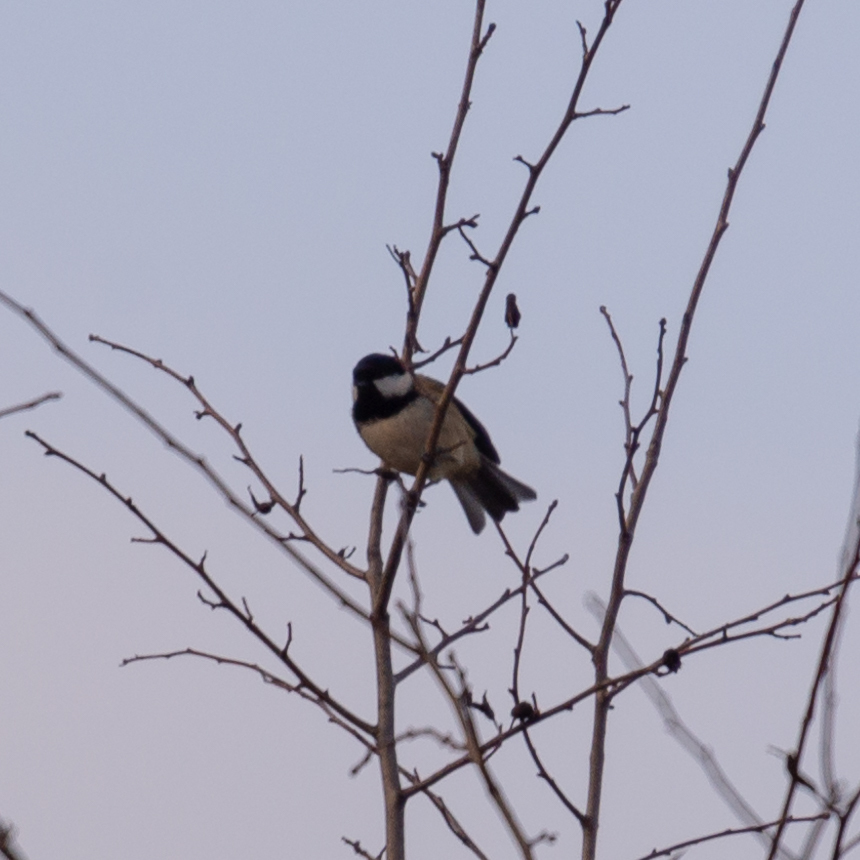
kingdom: Animalia
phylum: Chordata
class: Aves
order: Passeriformes
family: Paridae
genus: Periparus
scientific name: Periparus ater
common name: Coal tit
